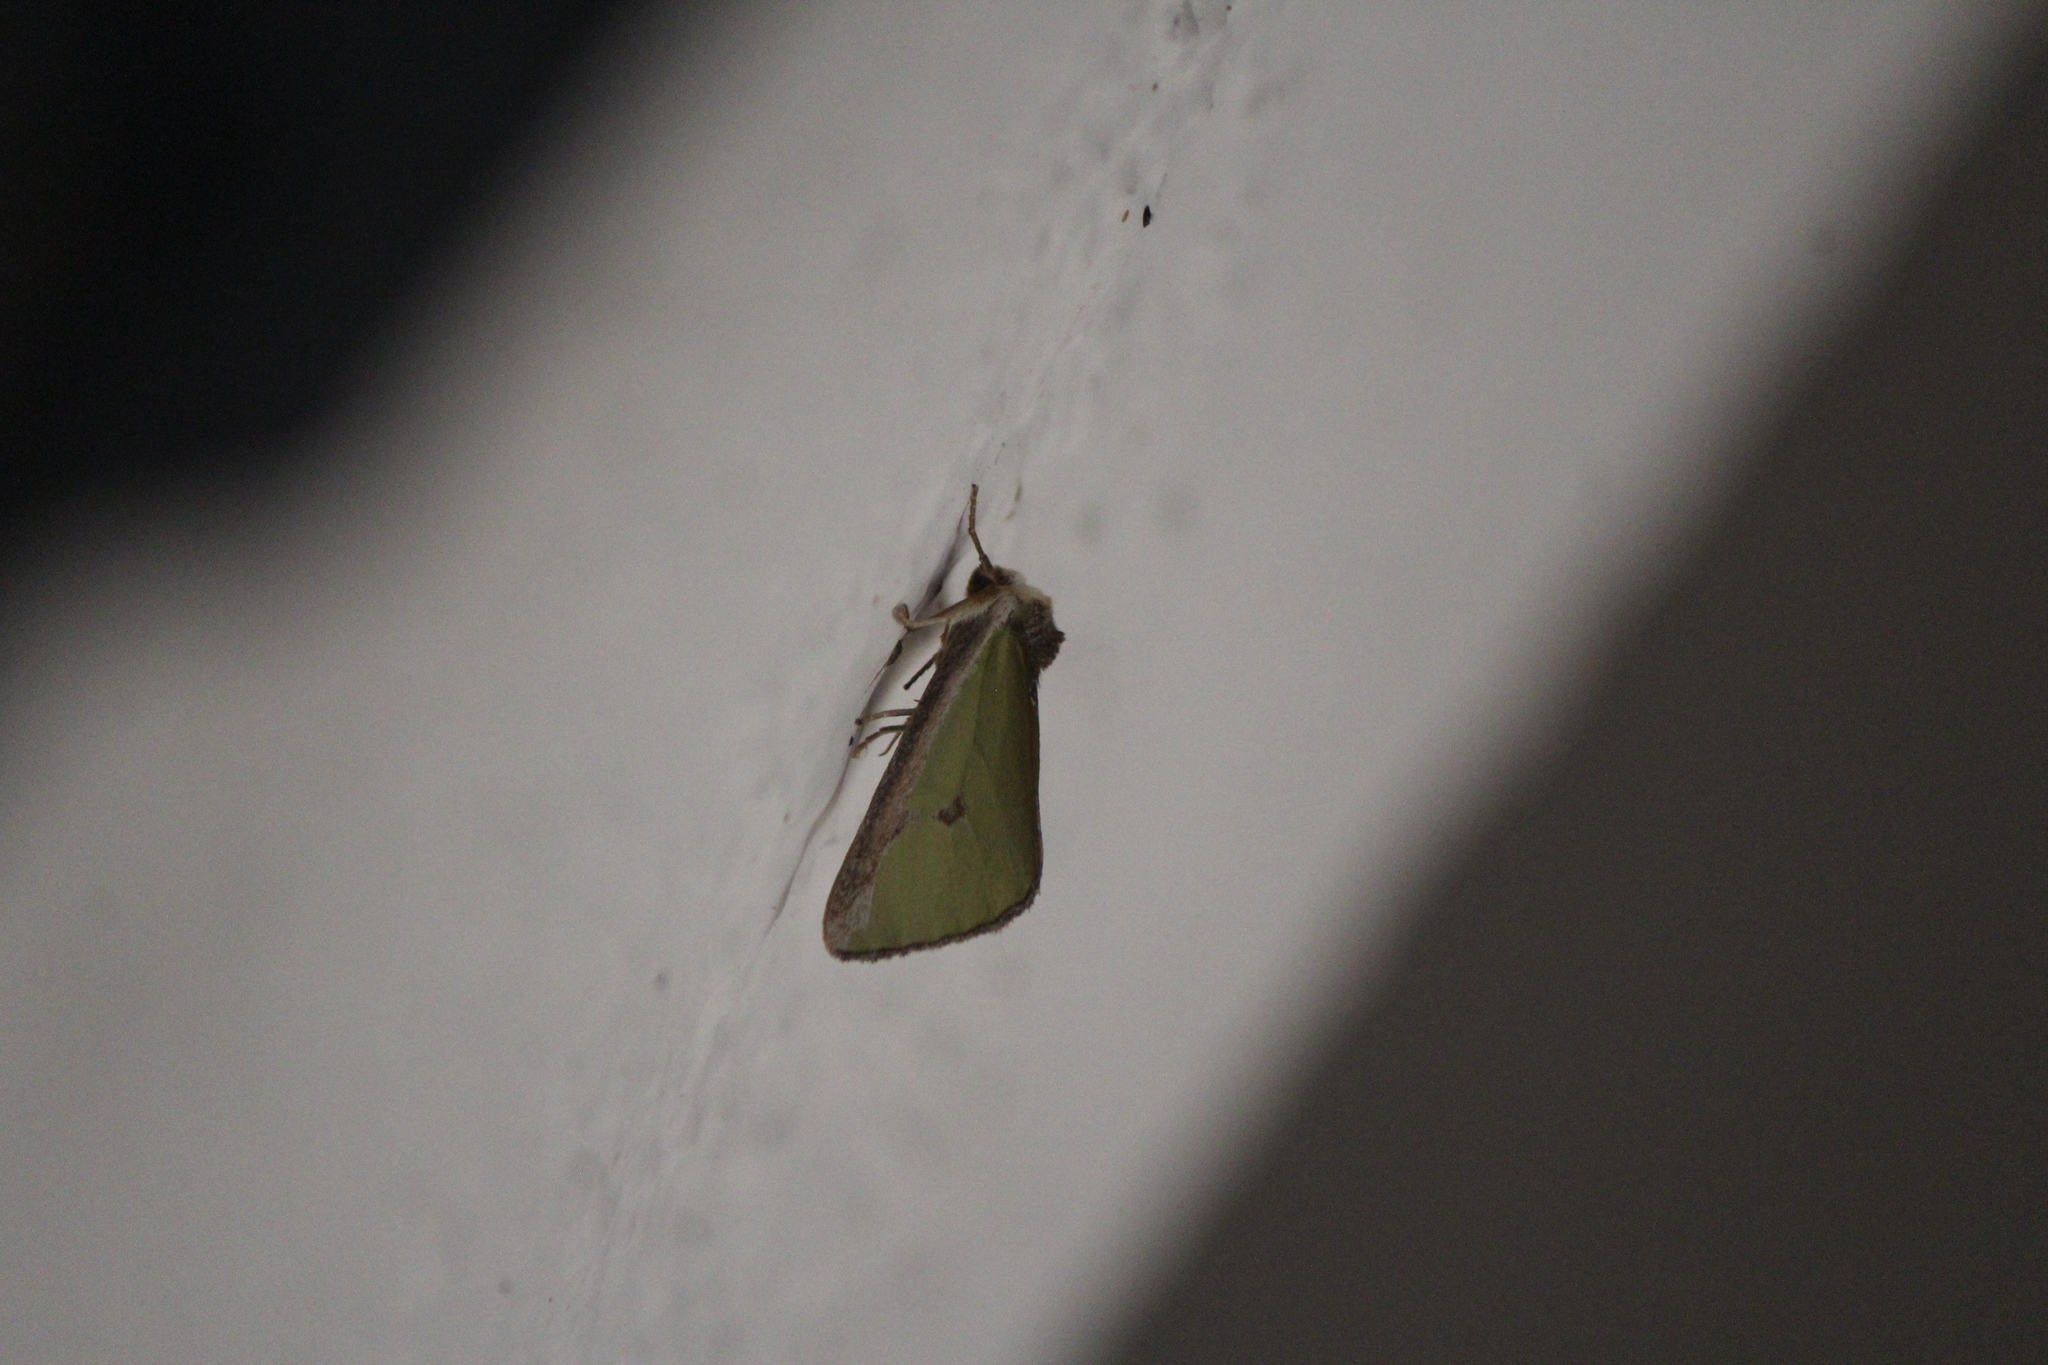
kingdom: Animalia
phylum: Arthropoda
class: Insecta
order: Lepidoptera
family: Noctuidae
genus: Neumoegenia
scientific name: Neumoegenia coronides
